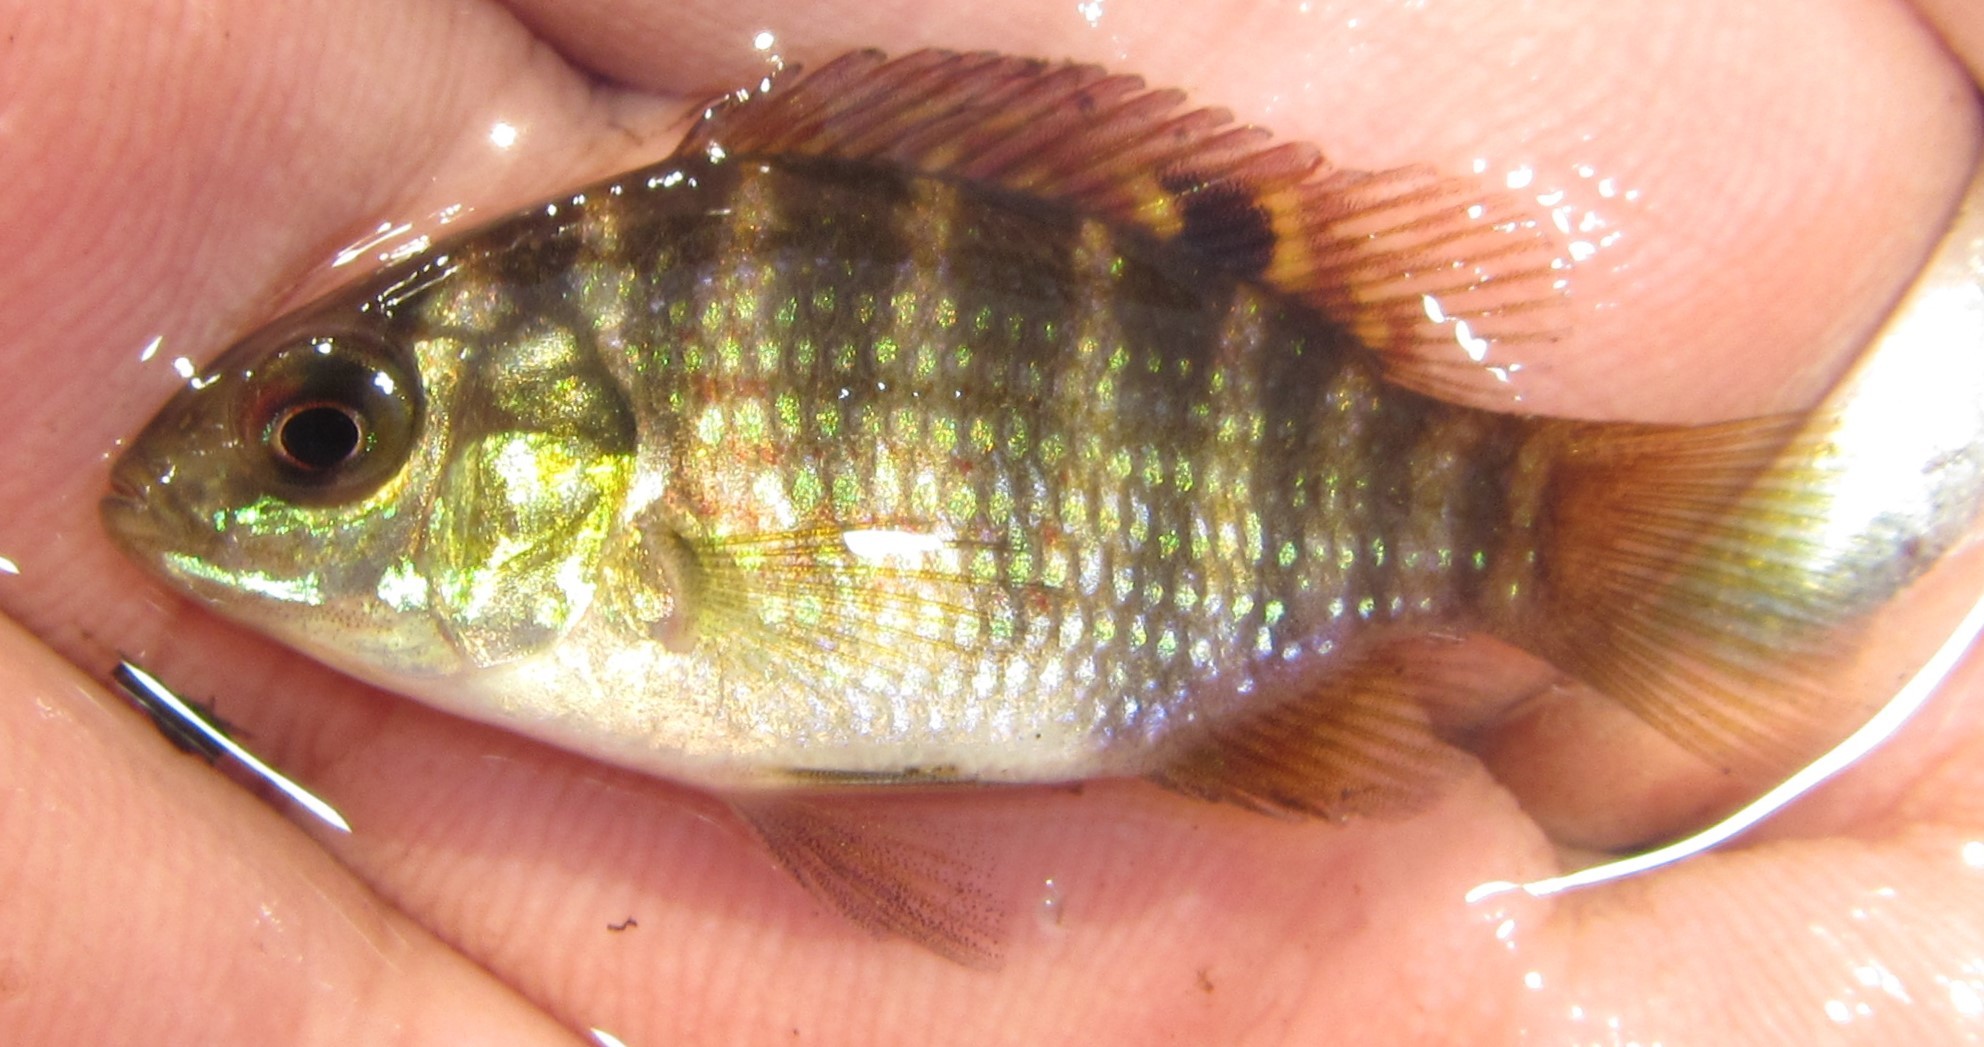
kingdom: Animalia
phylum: Chordata
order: Perciformes
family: Cichlidae
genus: Tilapia
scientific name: Tilapia ruweti
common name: Okavango tilapia
